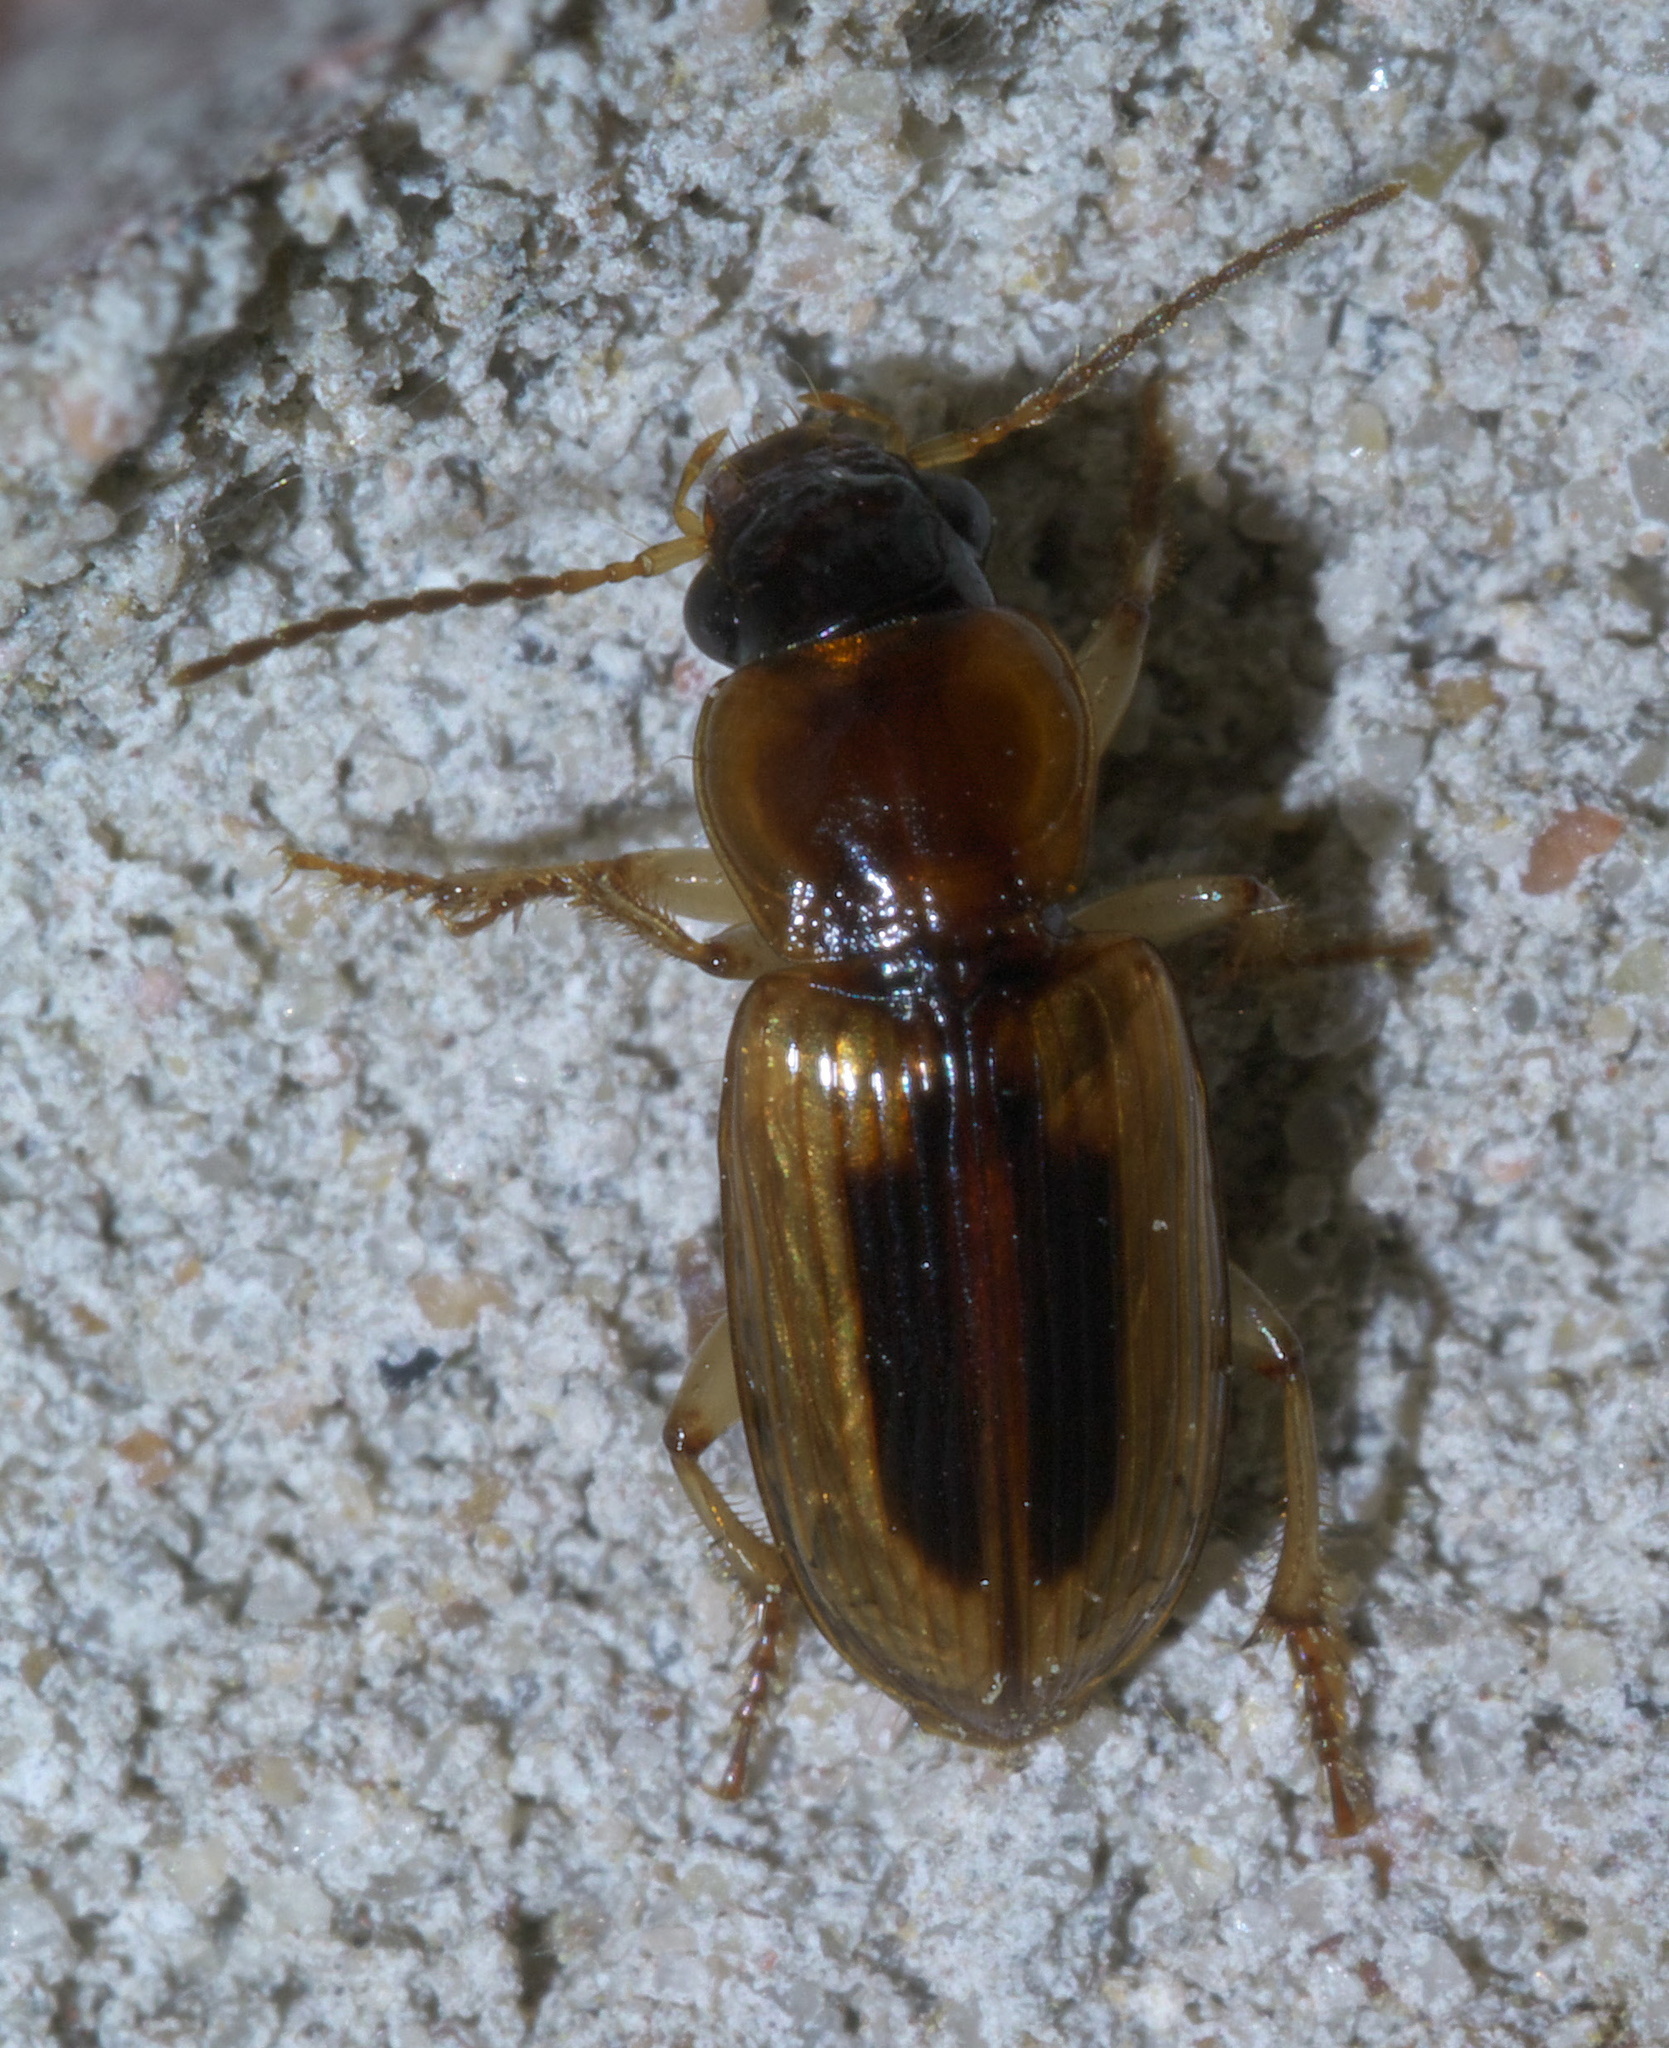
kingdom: Animalia
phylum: Arthropoda
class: Insecta
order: Coleoptera
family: Carabidae
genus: Stenolophus
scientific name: Stenolophus lecontei
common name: Leconte's seedcorn beetle
